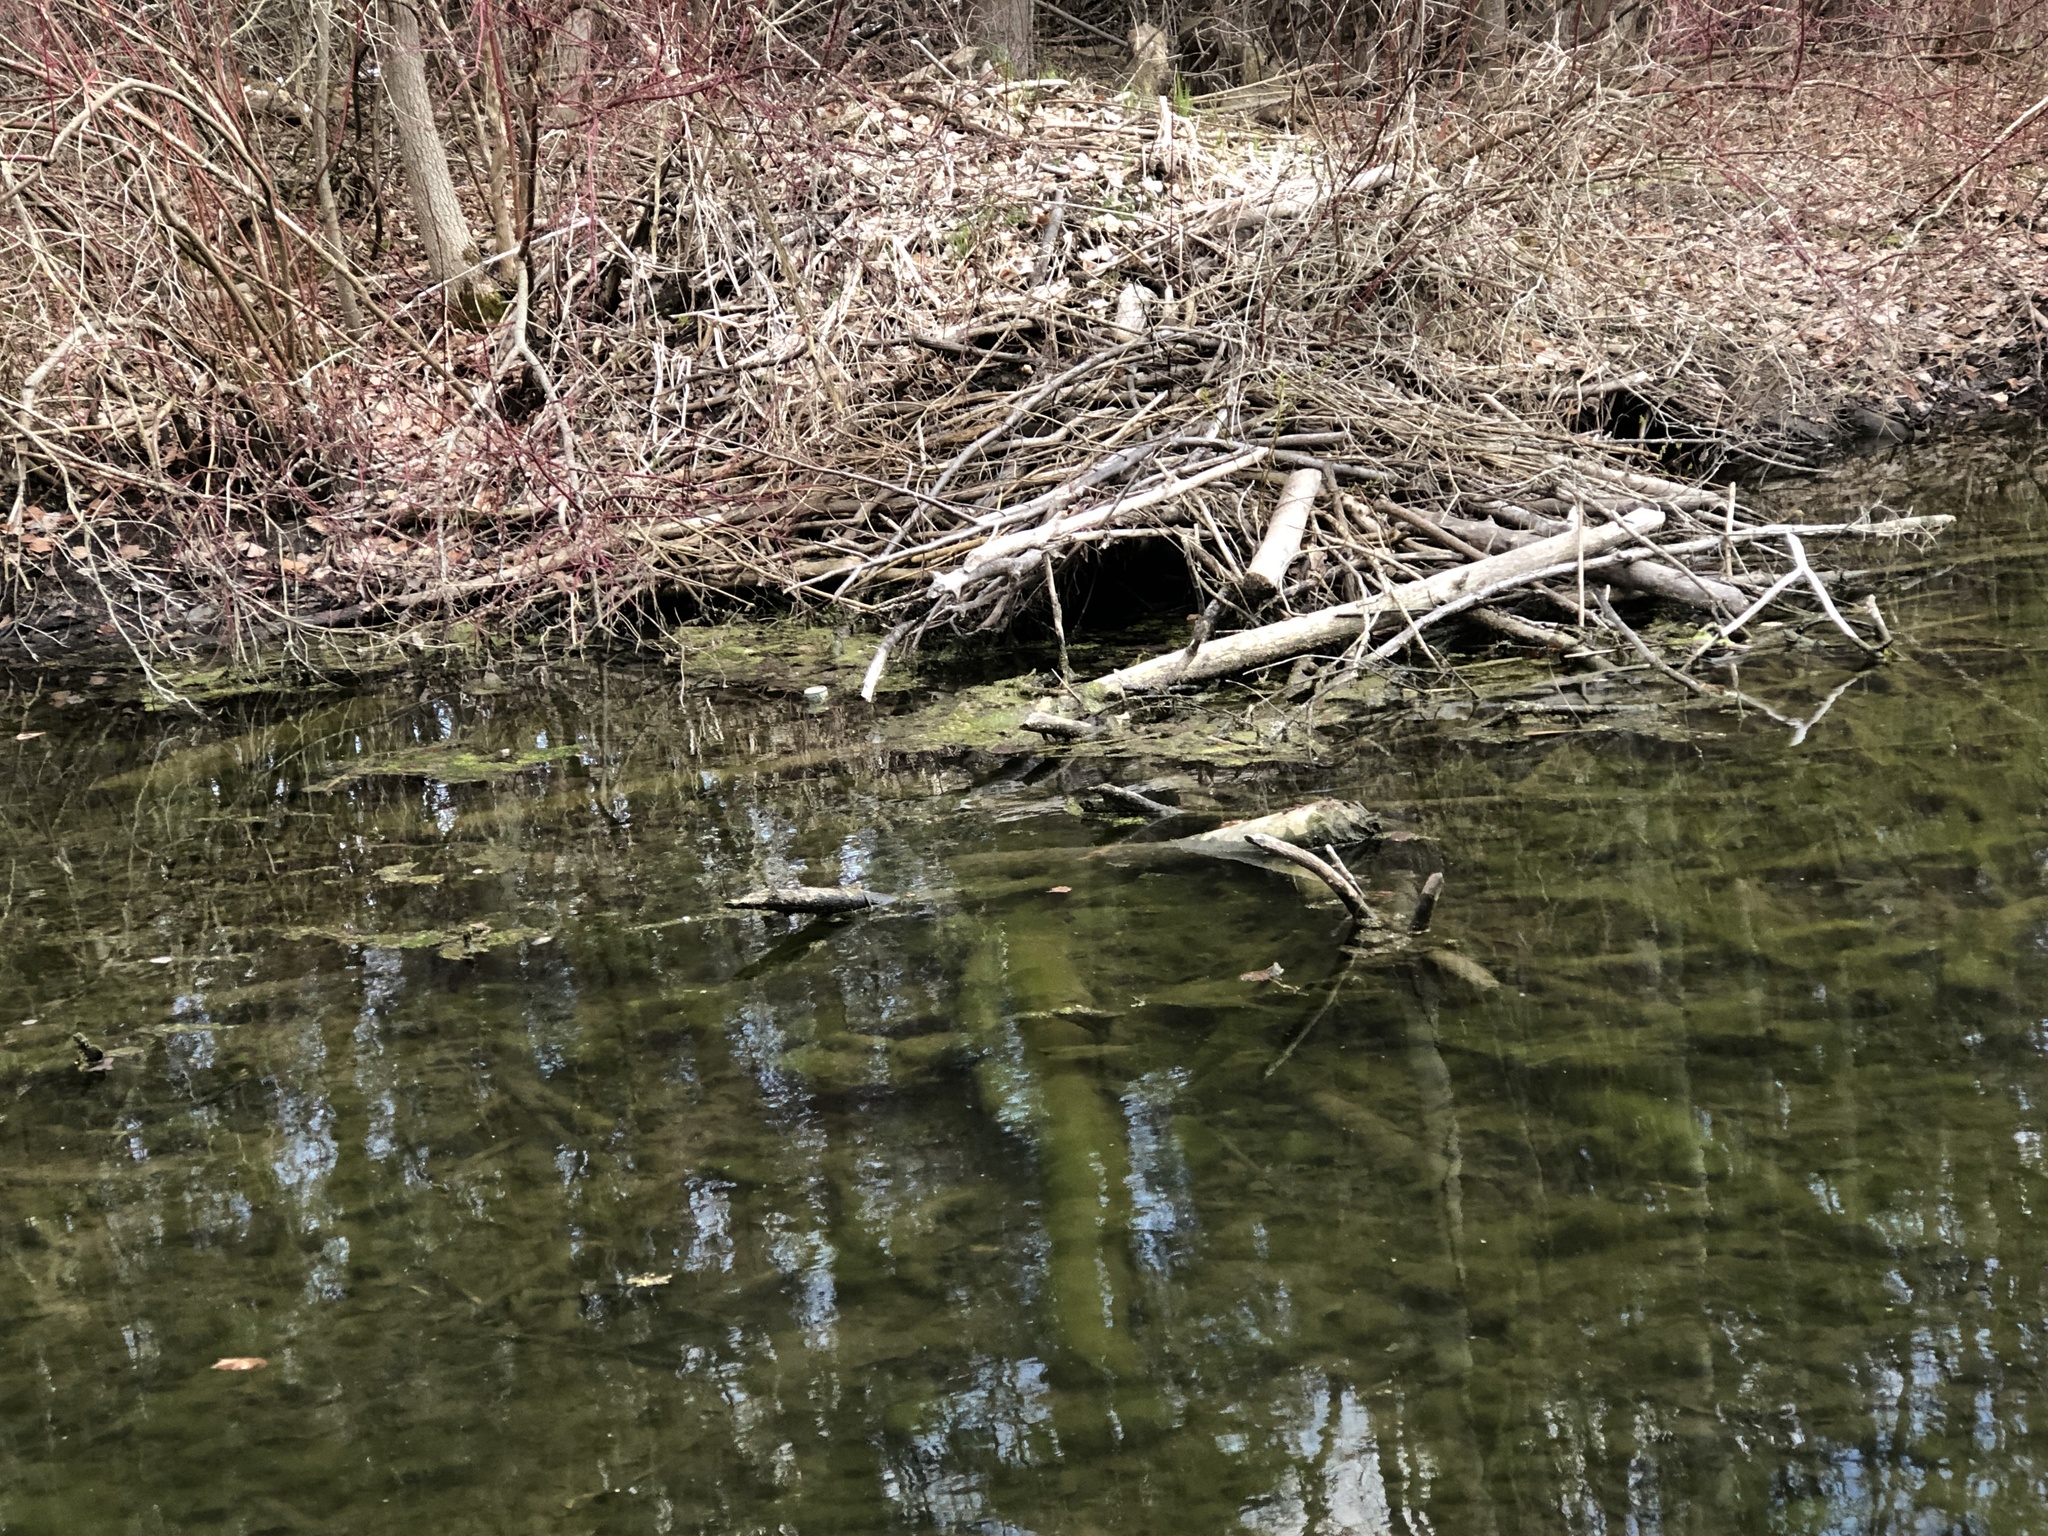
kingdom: Animalia
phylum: Chordata
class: Mammalia
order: Rodentia
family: Castoridae
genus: Castor
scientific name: Castor canadensis
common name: American beaver
